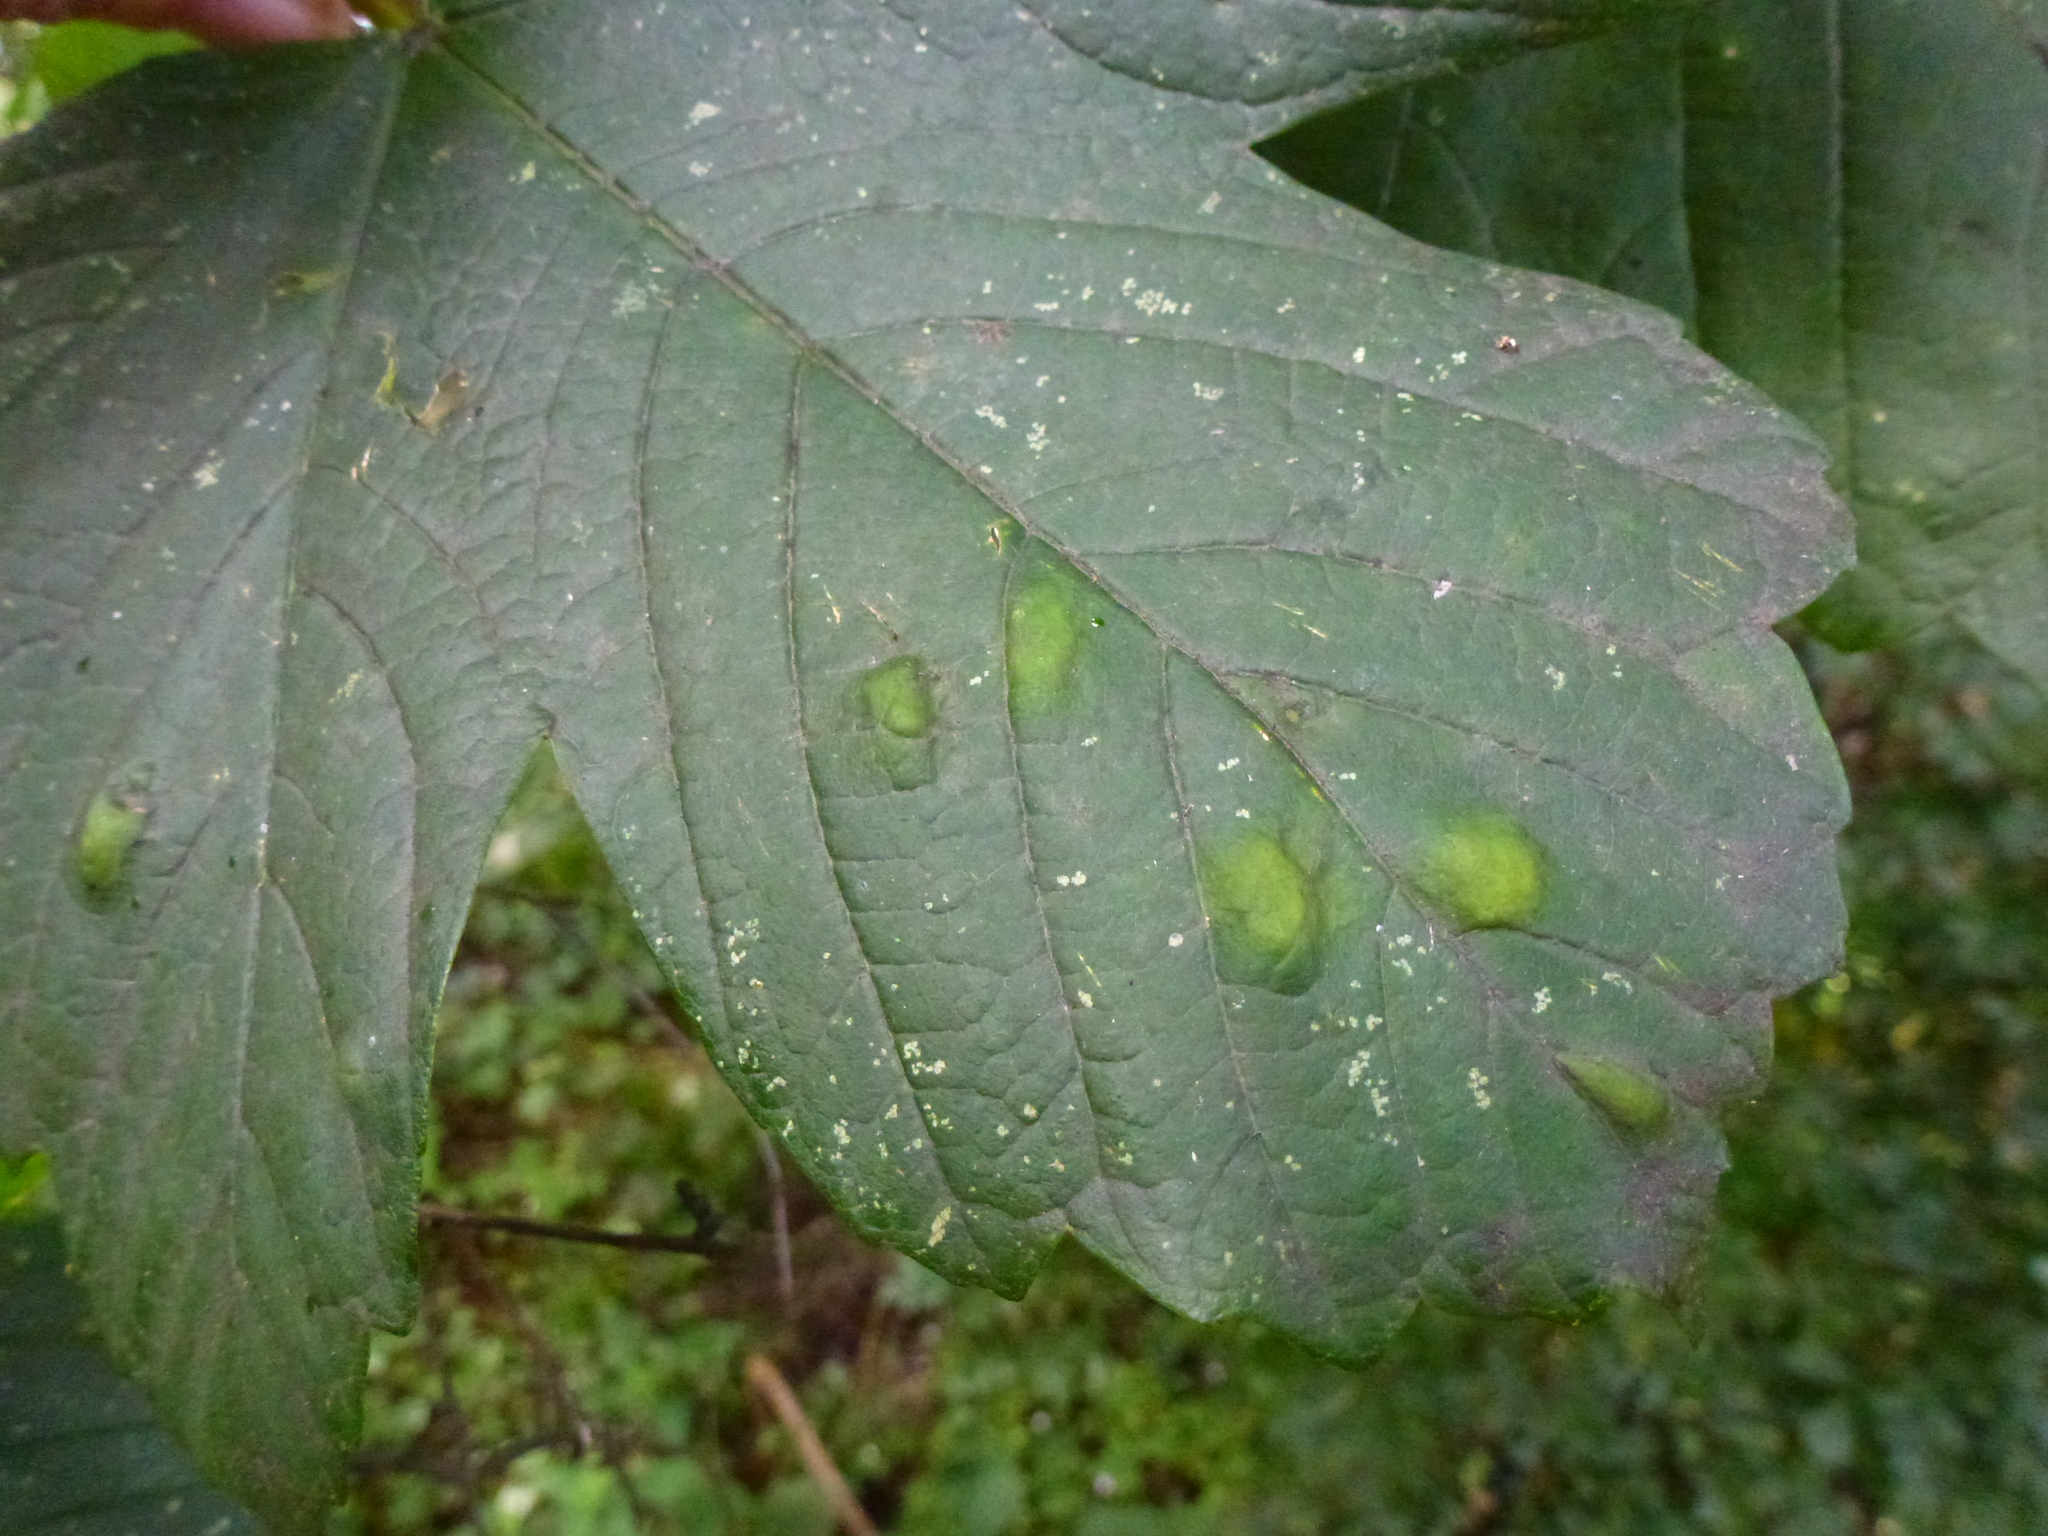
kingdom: Animalia
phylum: Arthropoda
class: Arachnida
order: Trombidiformes
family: Eriophyidae
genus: Aceria
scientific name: Aceria pseudoplatani
